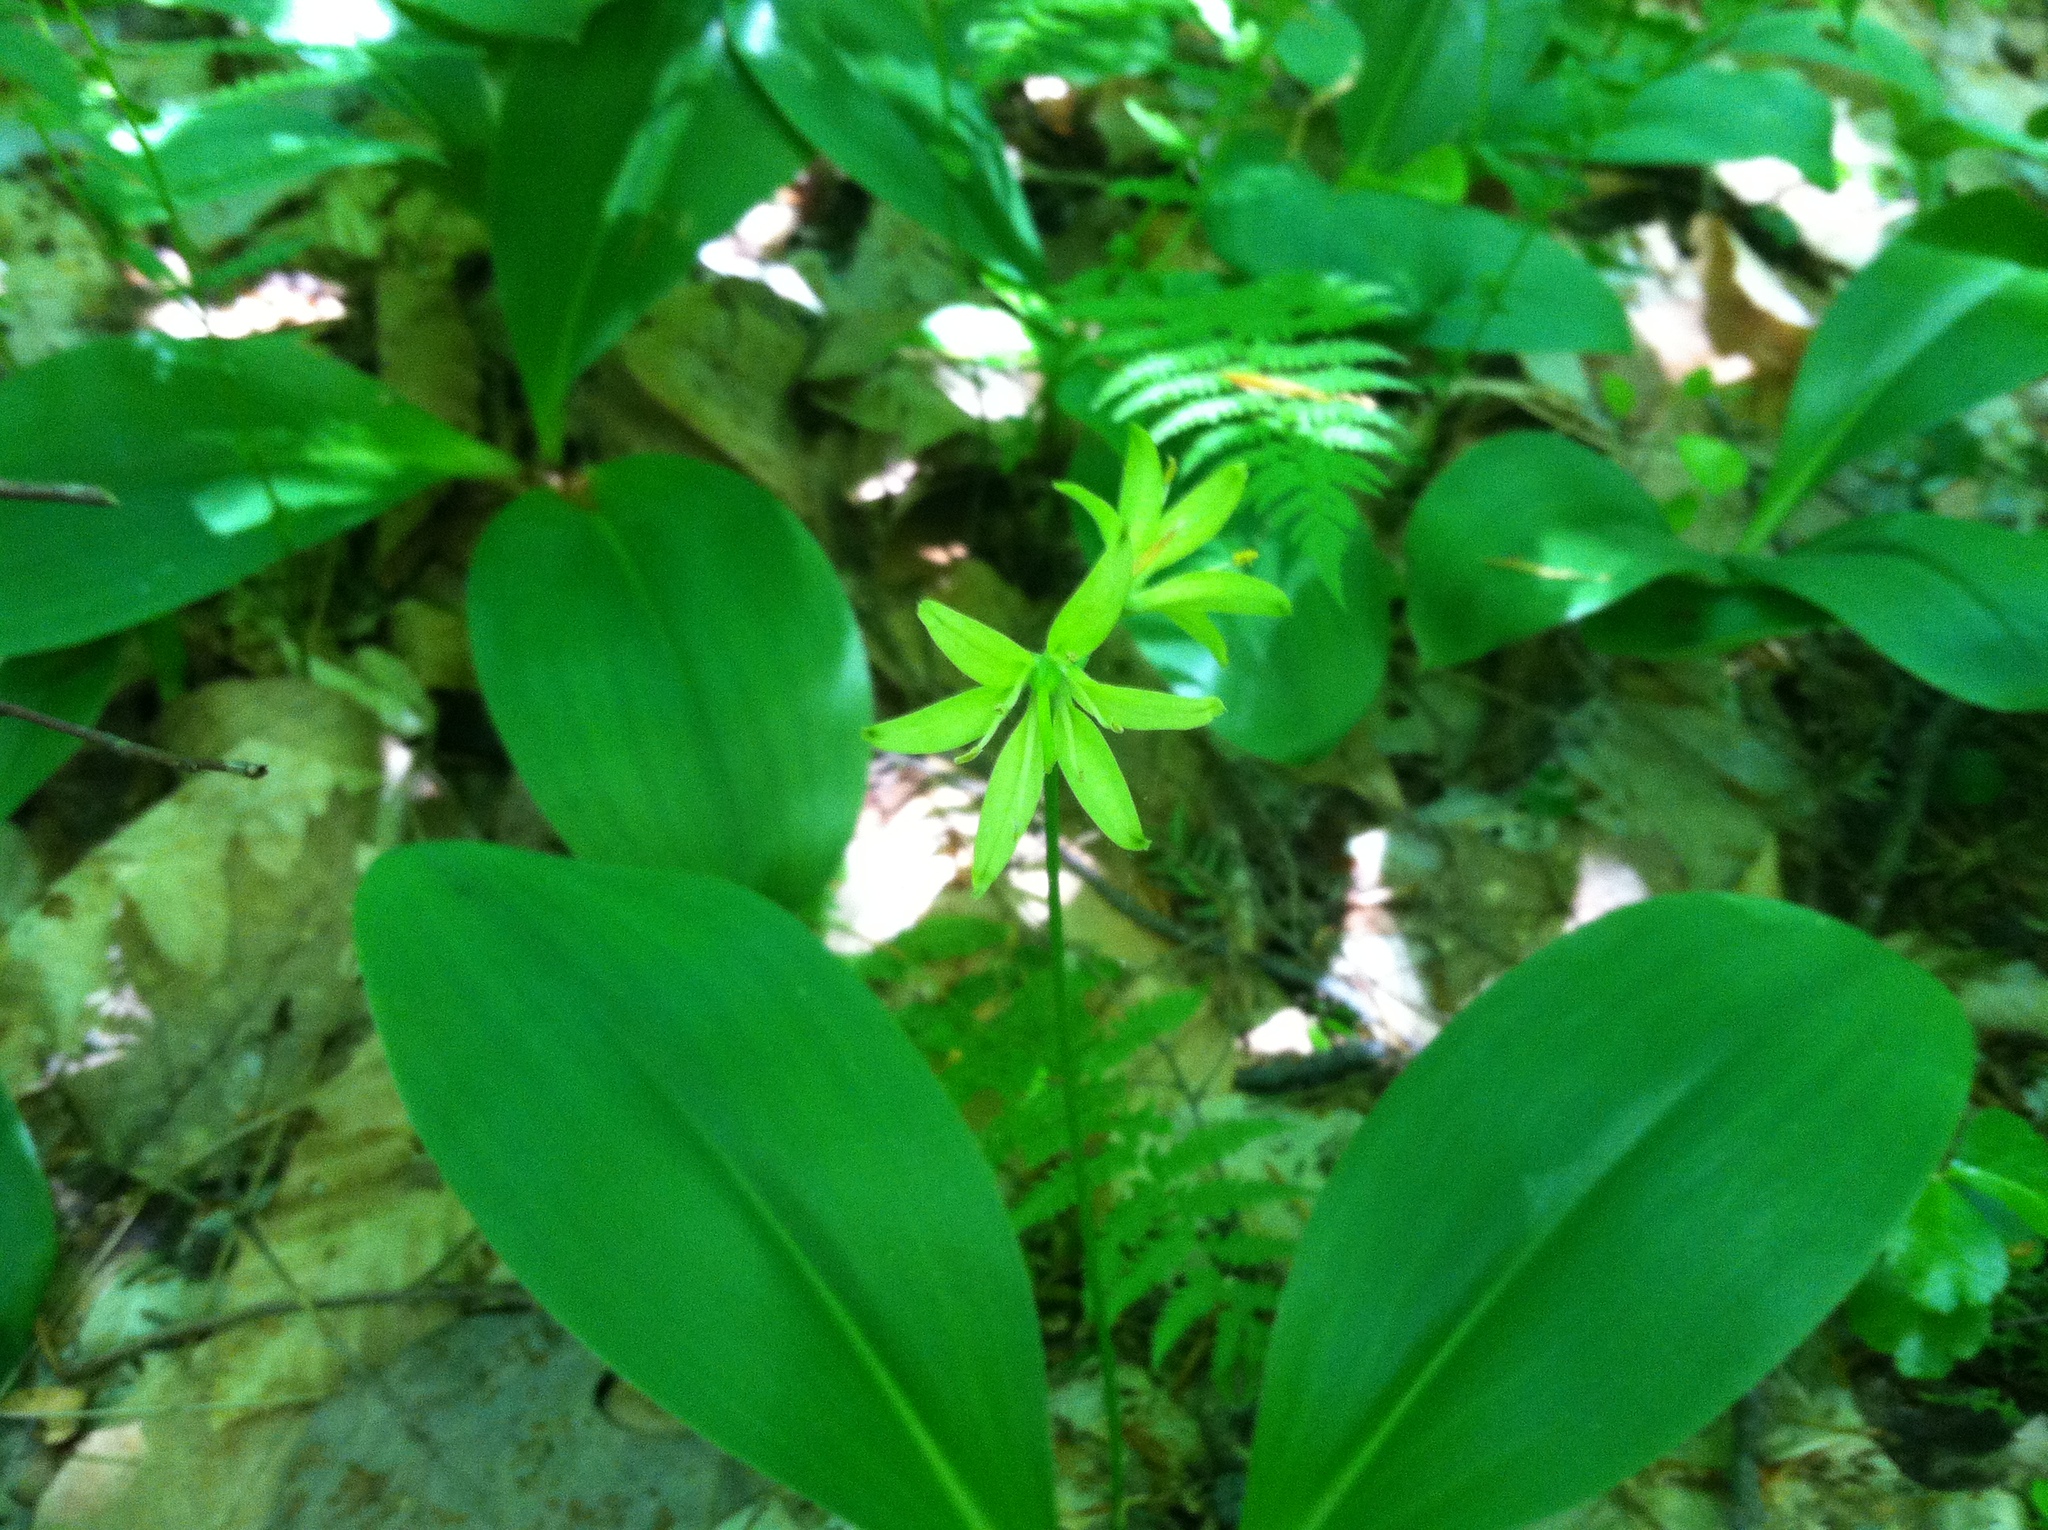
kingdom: Plantae
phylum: Tracheophyta
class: Liliopsida
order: Liliales
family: Liliaceae
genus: Clintonia
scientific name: Clintonia borealis
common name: Yellow clintonia
